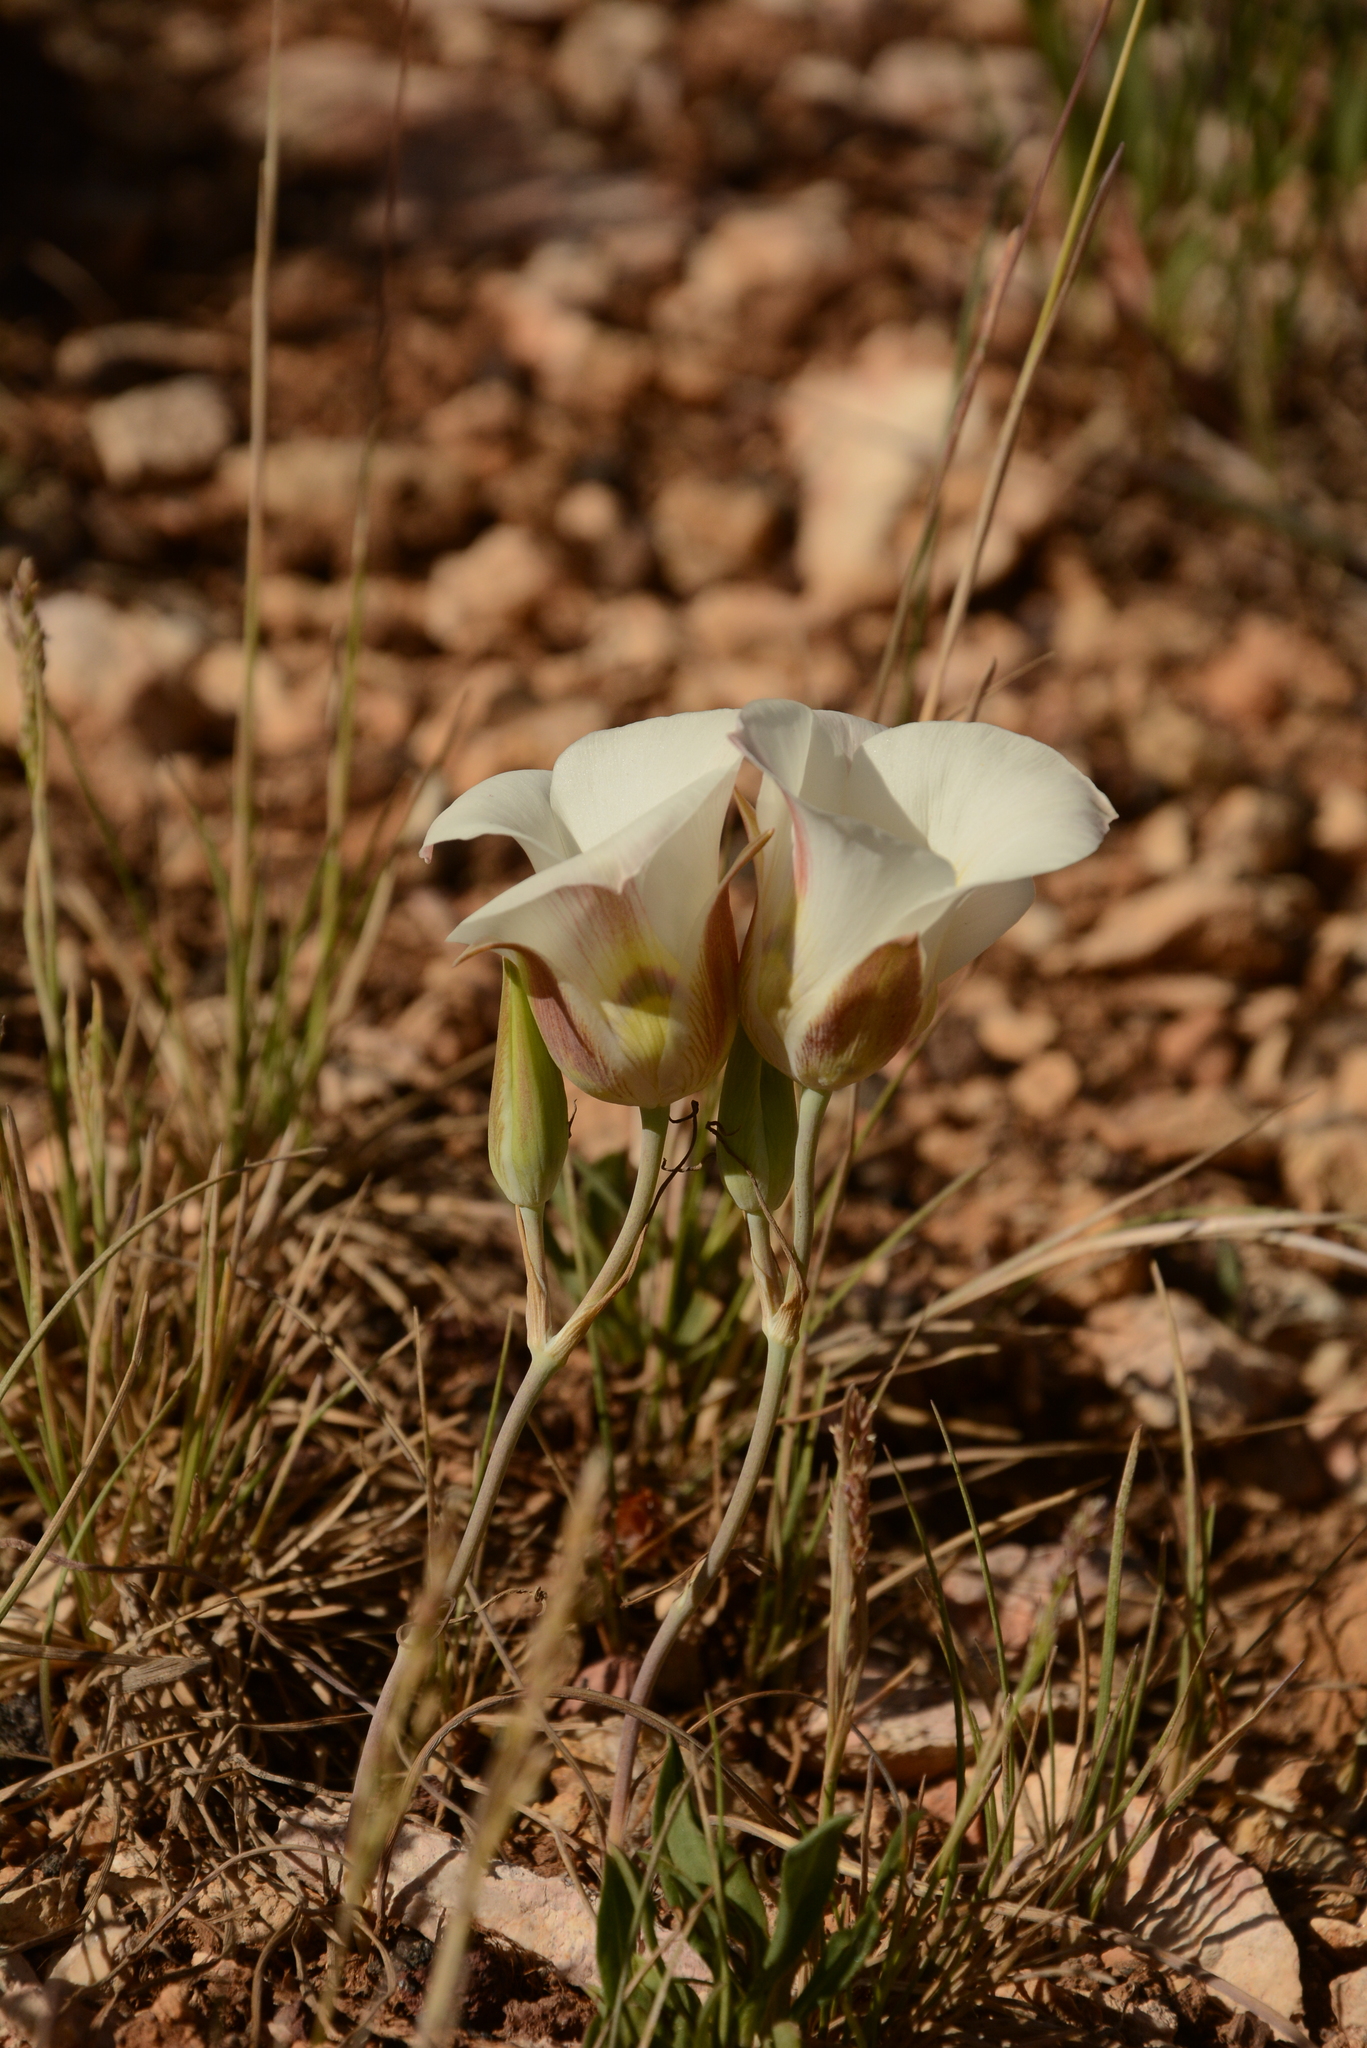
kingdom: Plantae
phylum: Tracheophyta
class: Liliopsida
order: Liliales
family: Liliaceae
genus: Calochortus
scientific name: Calochortus nuttallii
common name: Sego-lily
